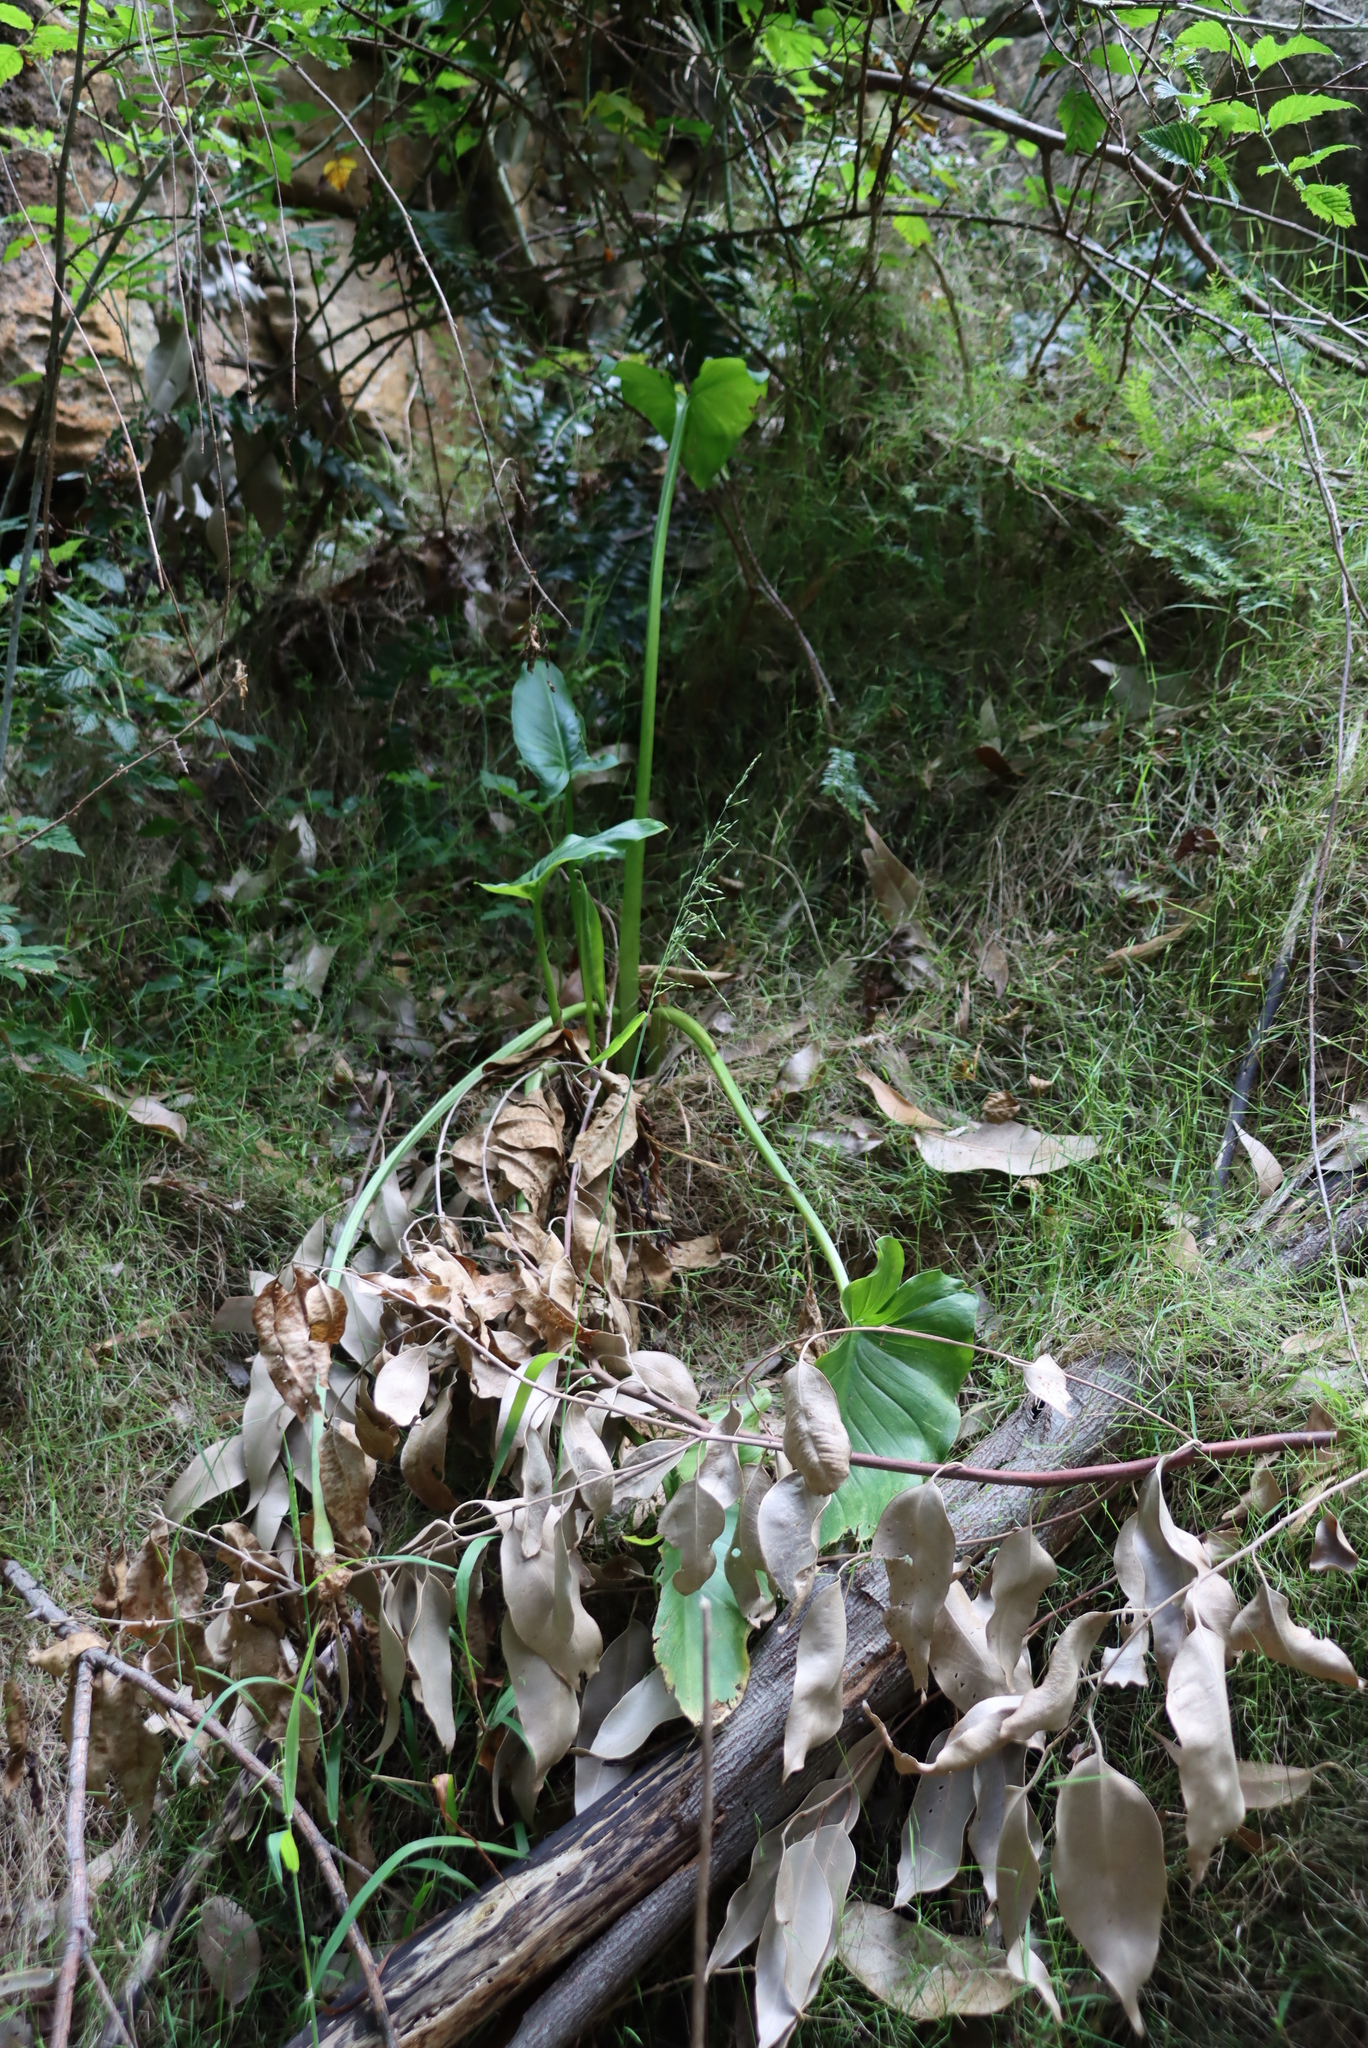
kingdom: Plantae
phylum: Tracheophyta
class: Liliopsida
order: Alismatales
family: Araceae
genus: Zantedeschia
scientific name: Zantedeschia aethiopica
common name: Altar-lily
